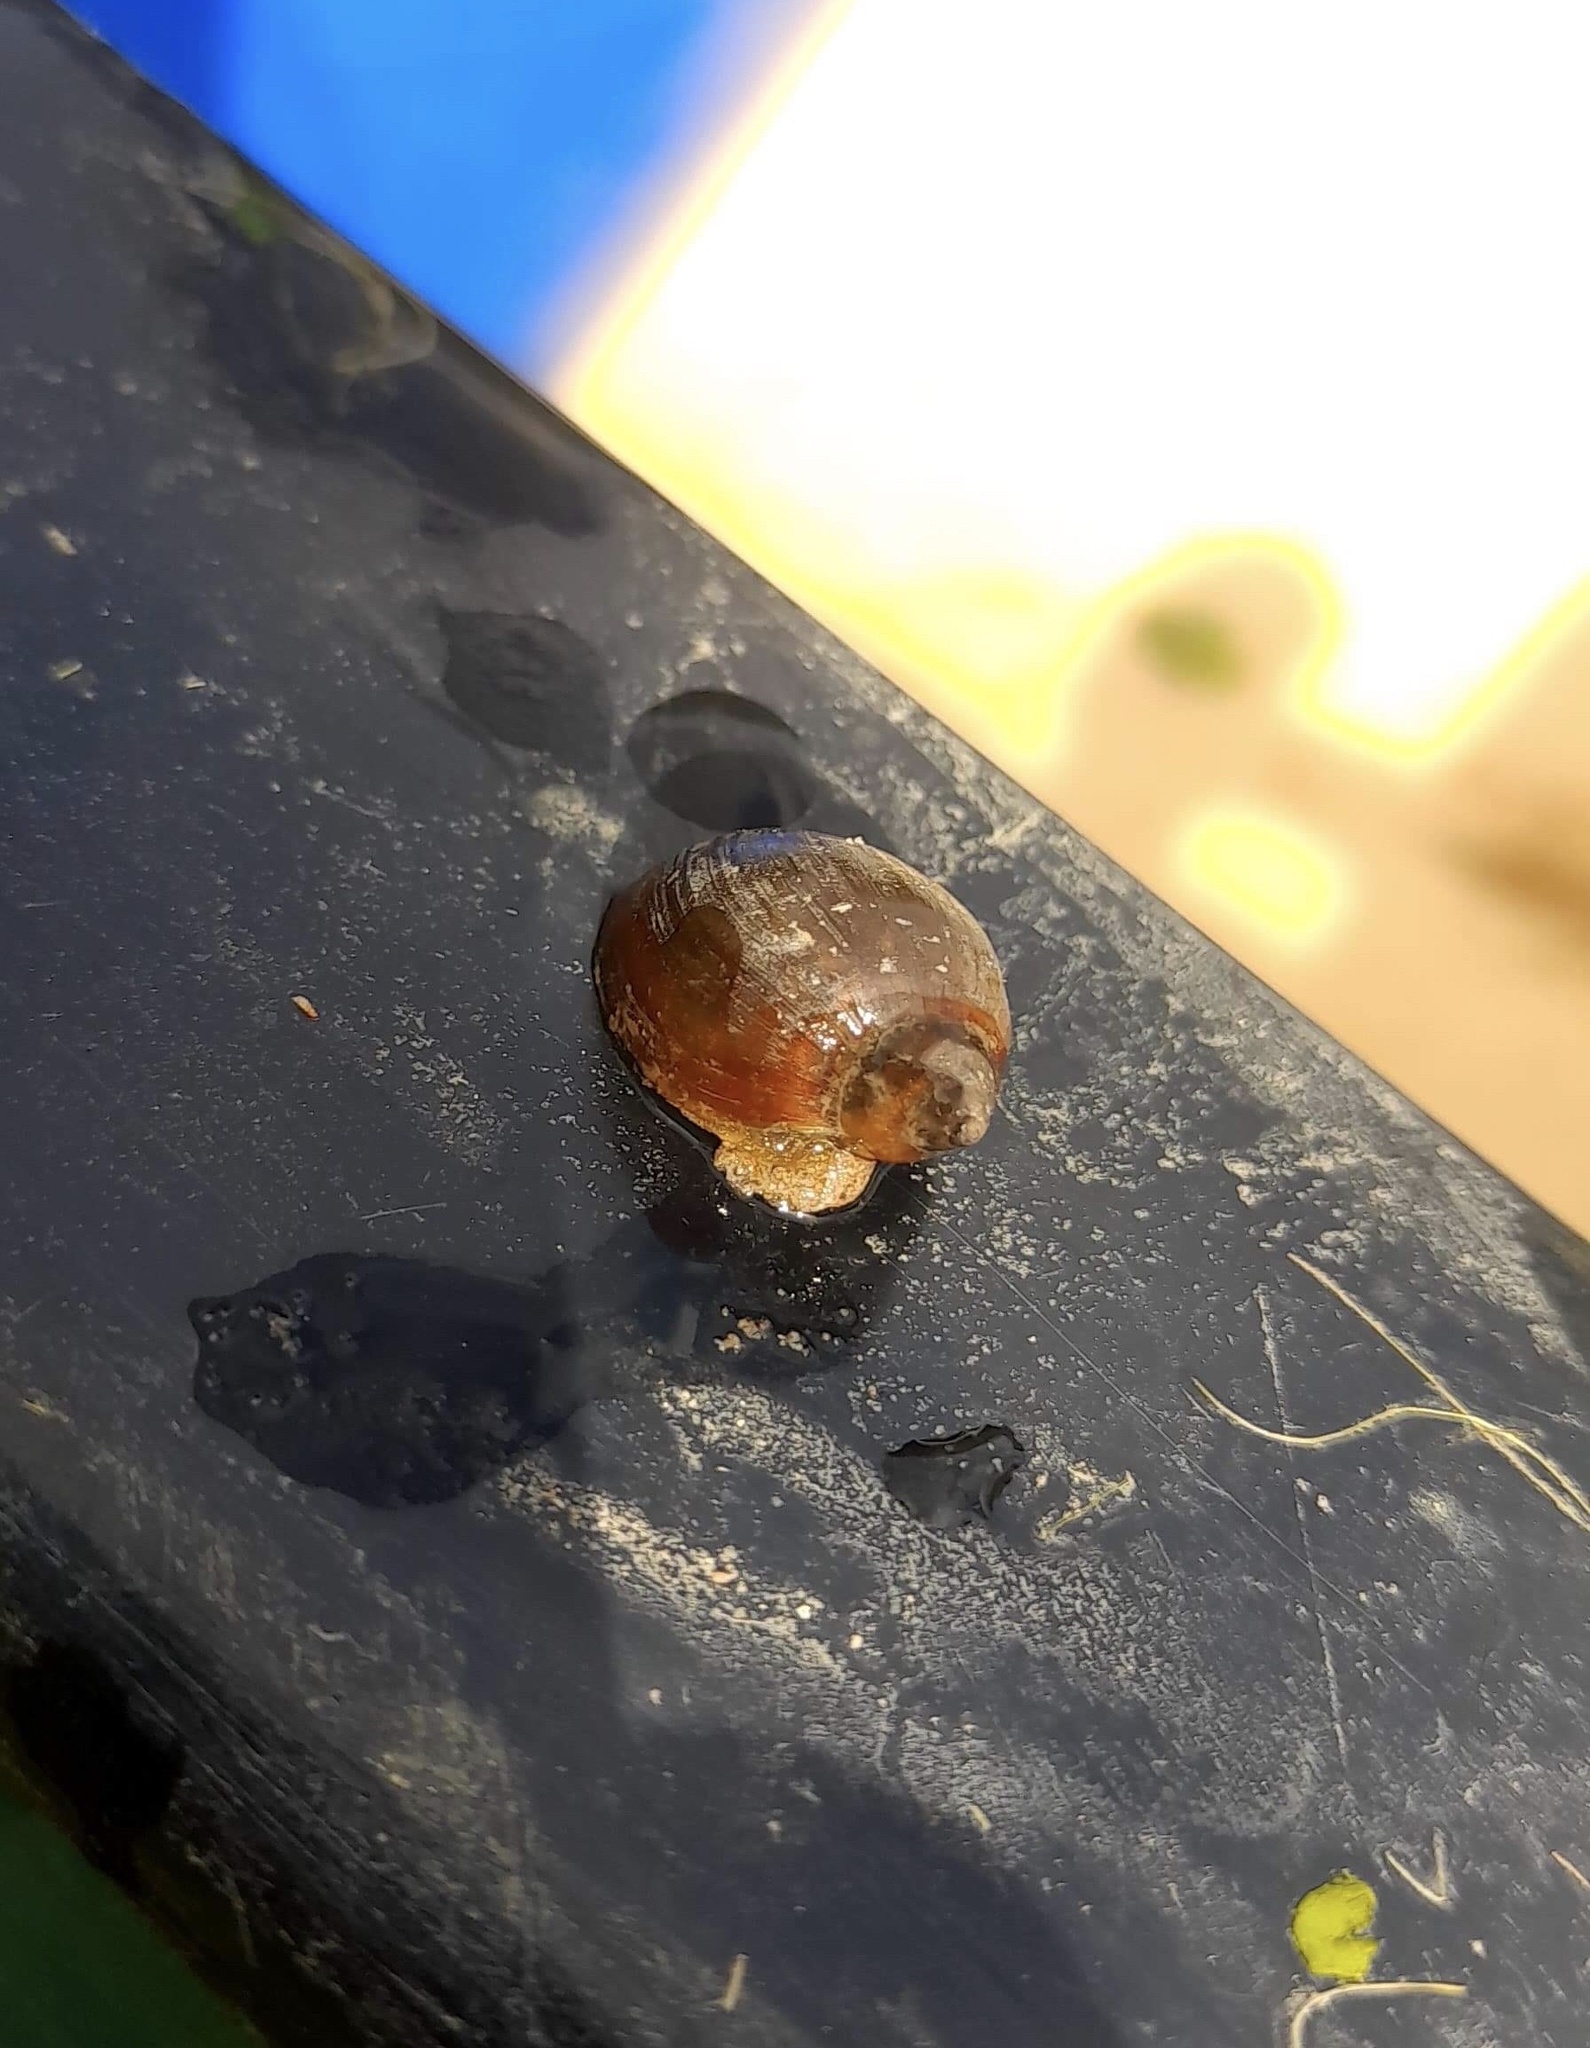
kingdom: Animalia
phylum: Mollusca
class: Gastropoda
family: Physidae
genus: Physella
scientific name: Physella acuta
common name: European physa
